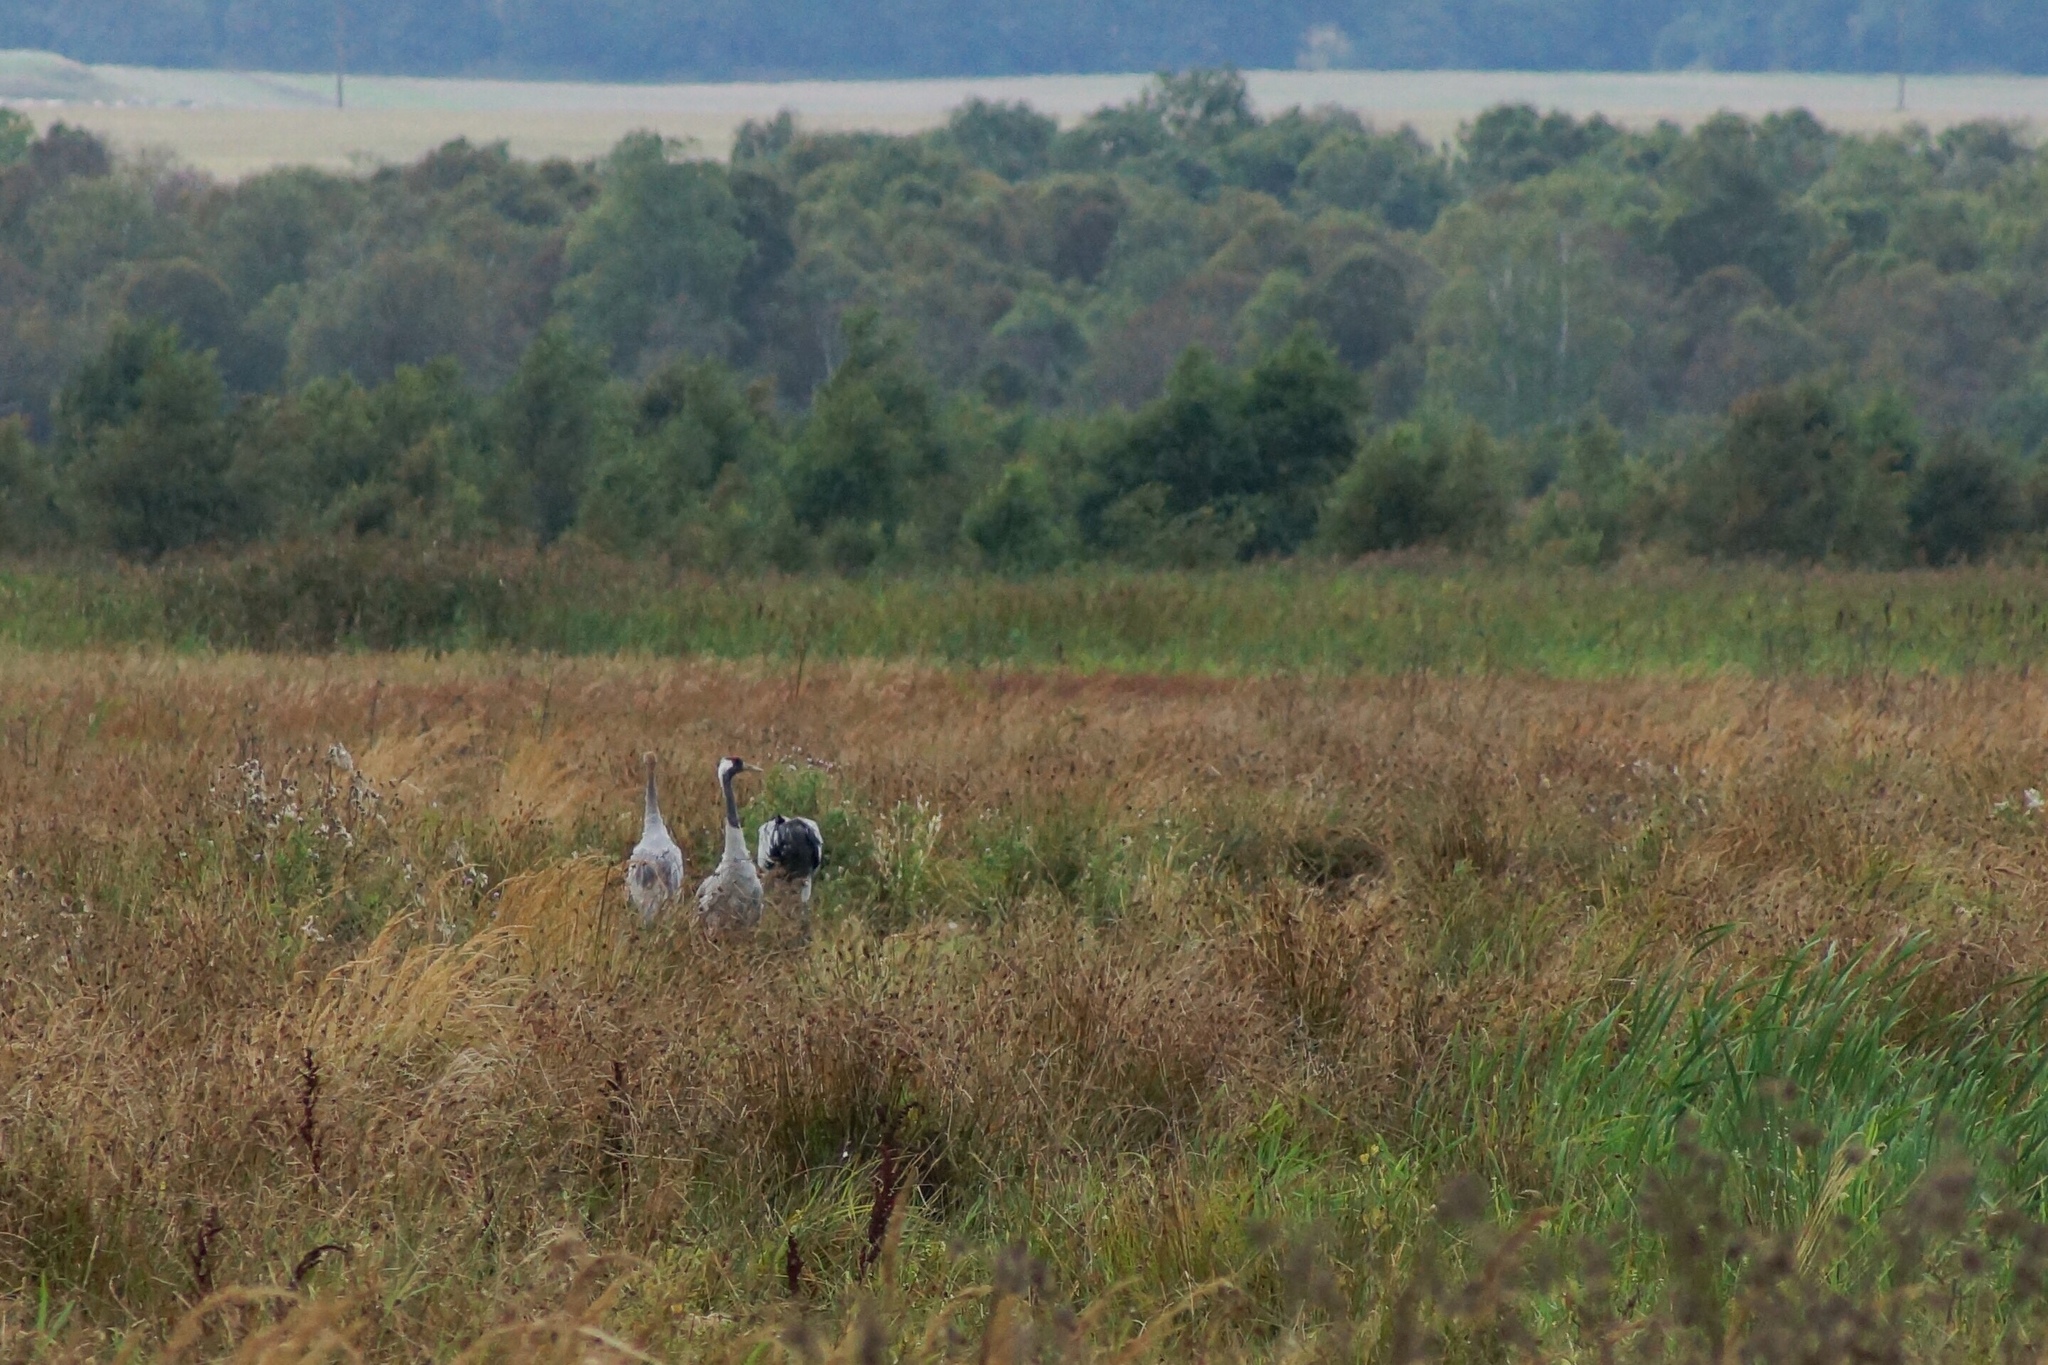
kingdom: Animalia
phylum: Chordata
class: Aves
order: Gruiformes
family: Gruidae
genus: Grus
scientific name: Grus grus
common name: Common crane
